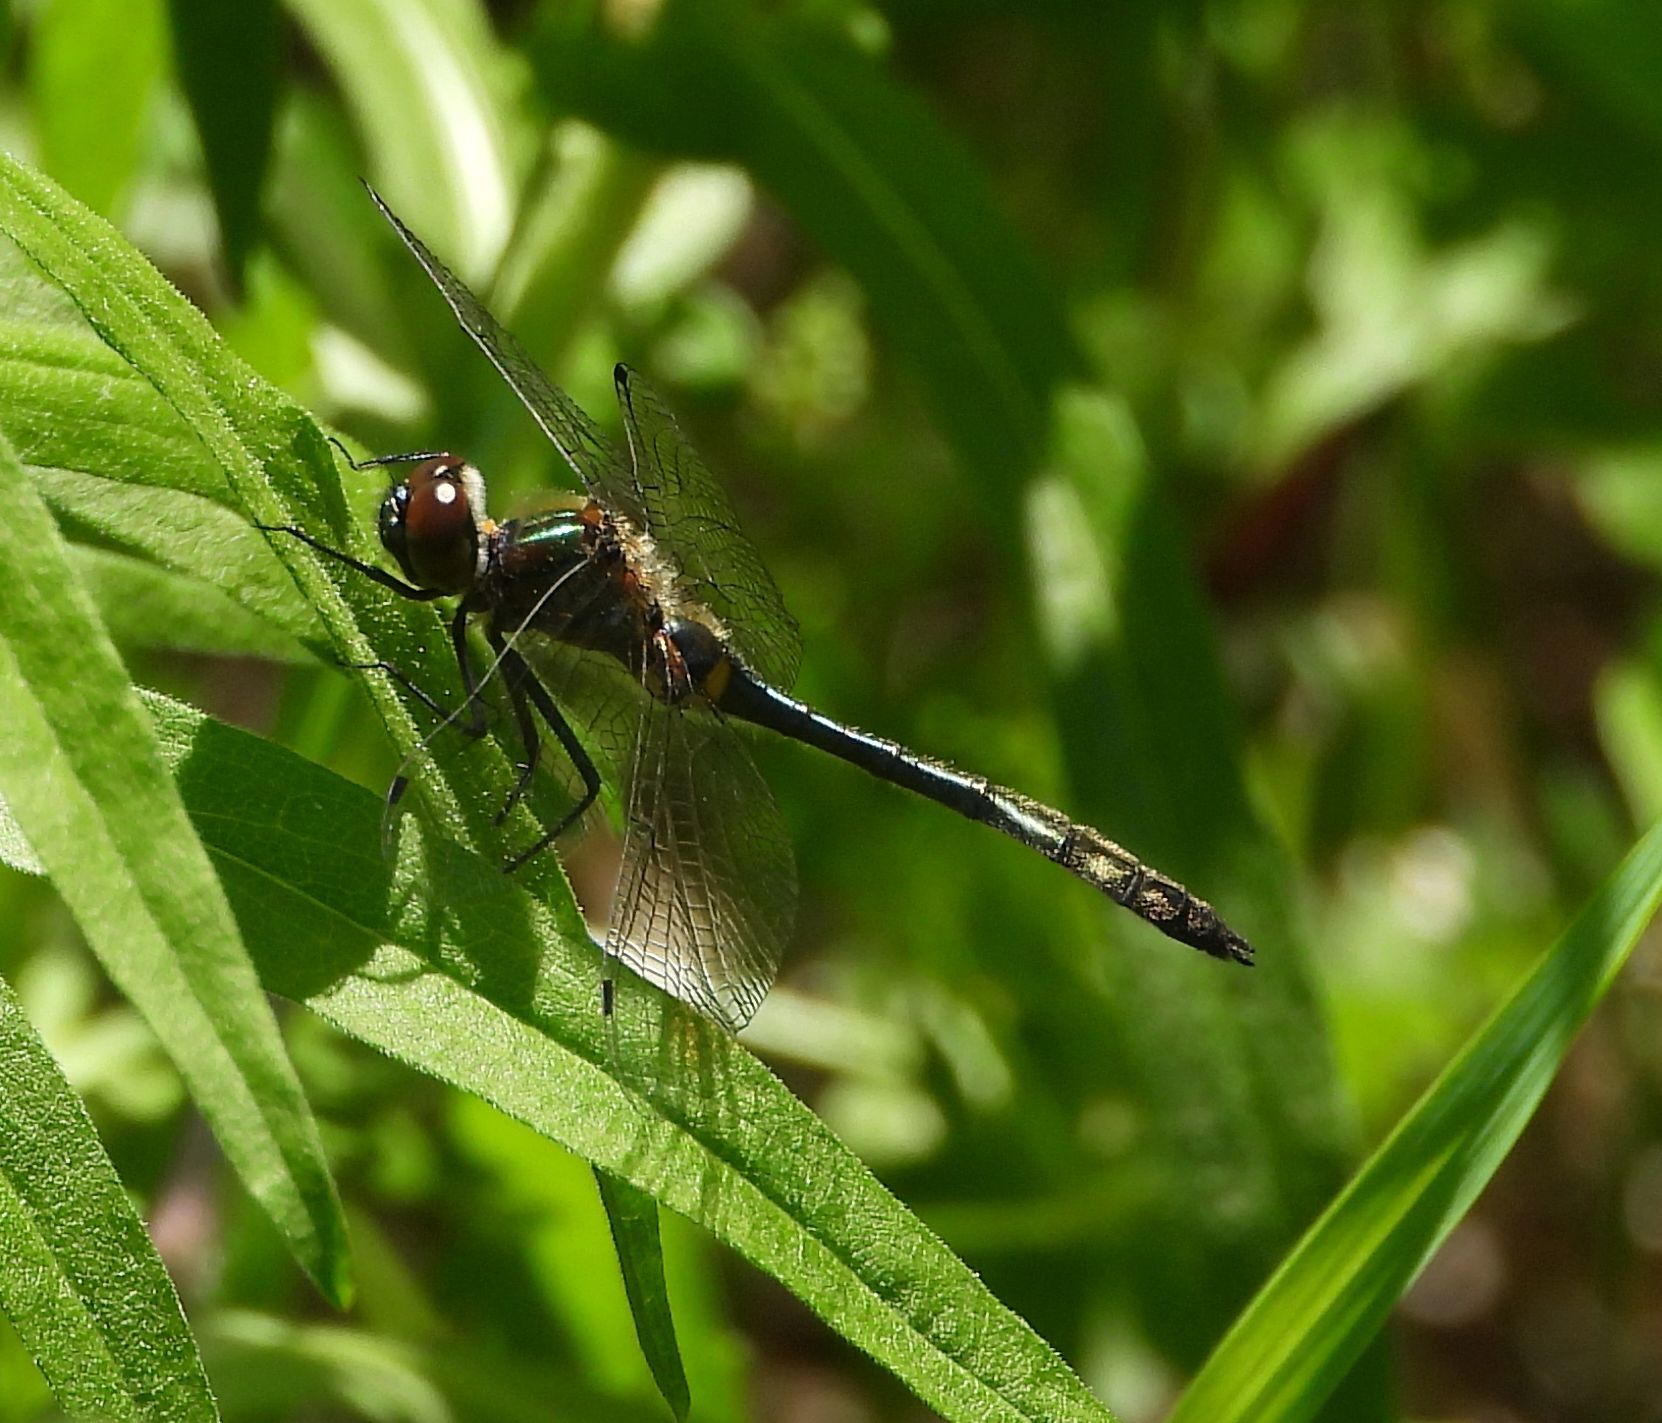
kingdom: Animalia
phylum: Arthropoda
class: Insecta
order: Odonata
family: Corduliidae
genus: Dorocordulia
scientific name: Dorocordulia libera
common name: Racket-tailed emerald
